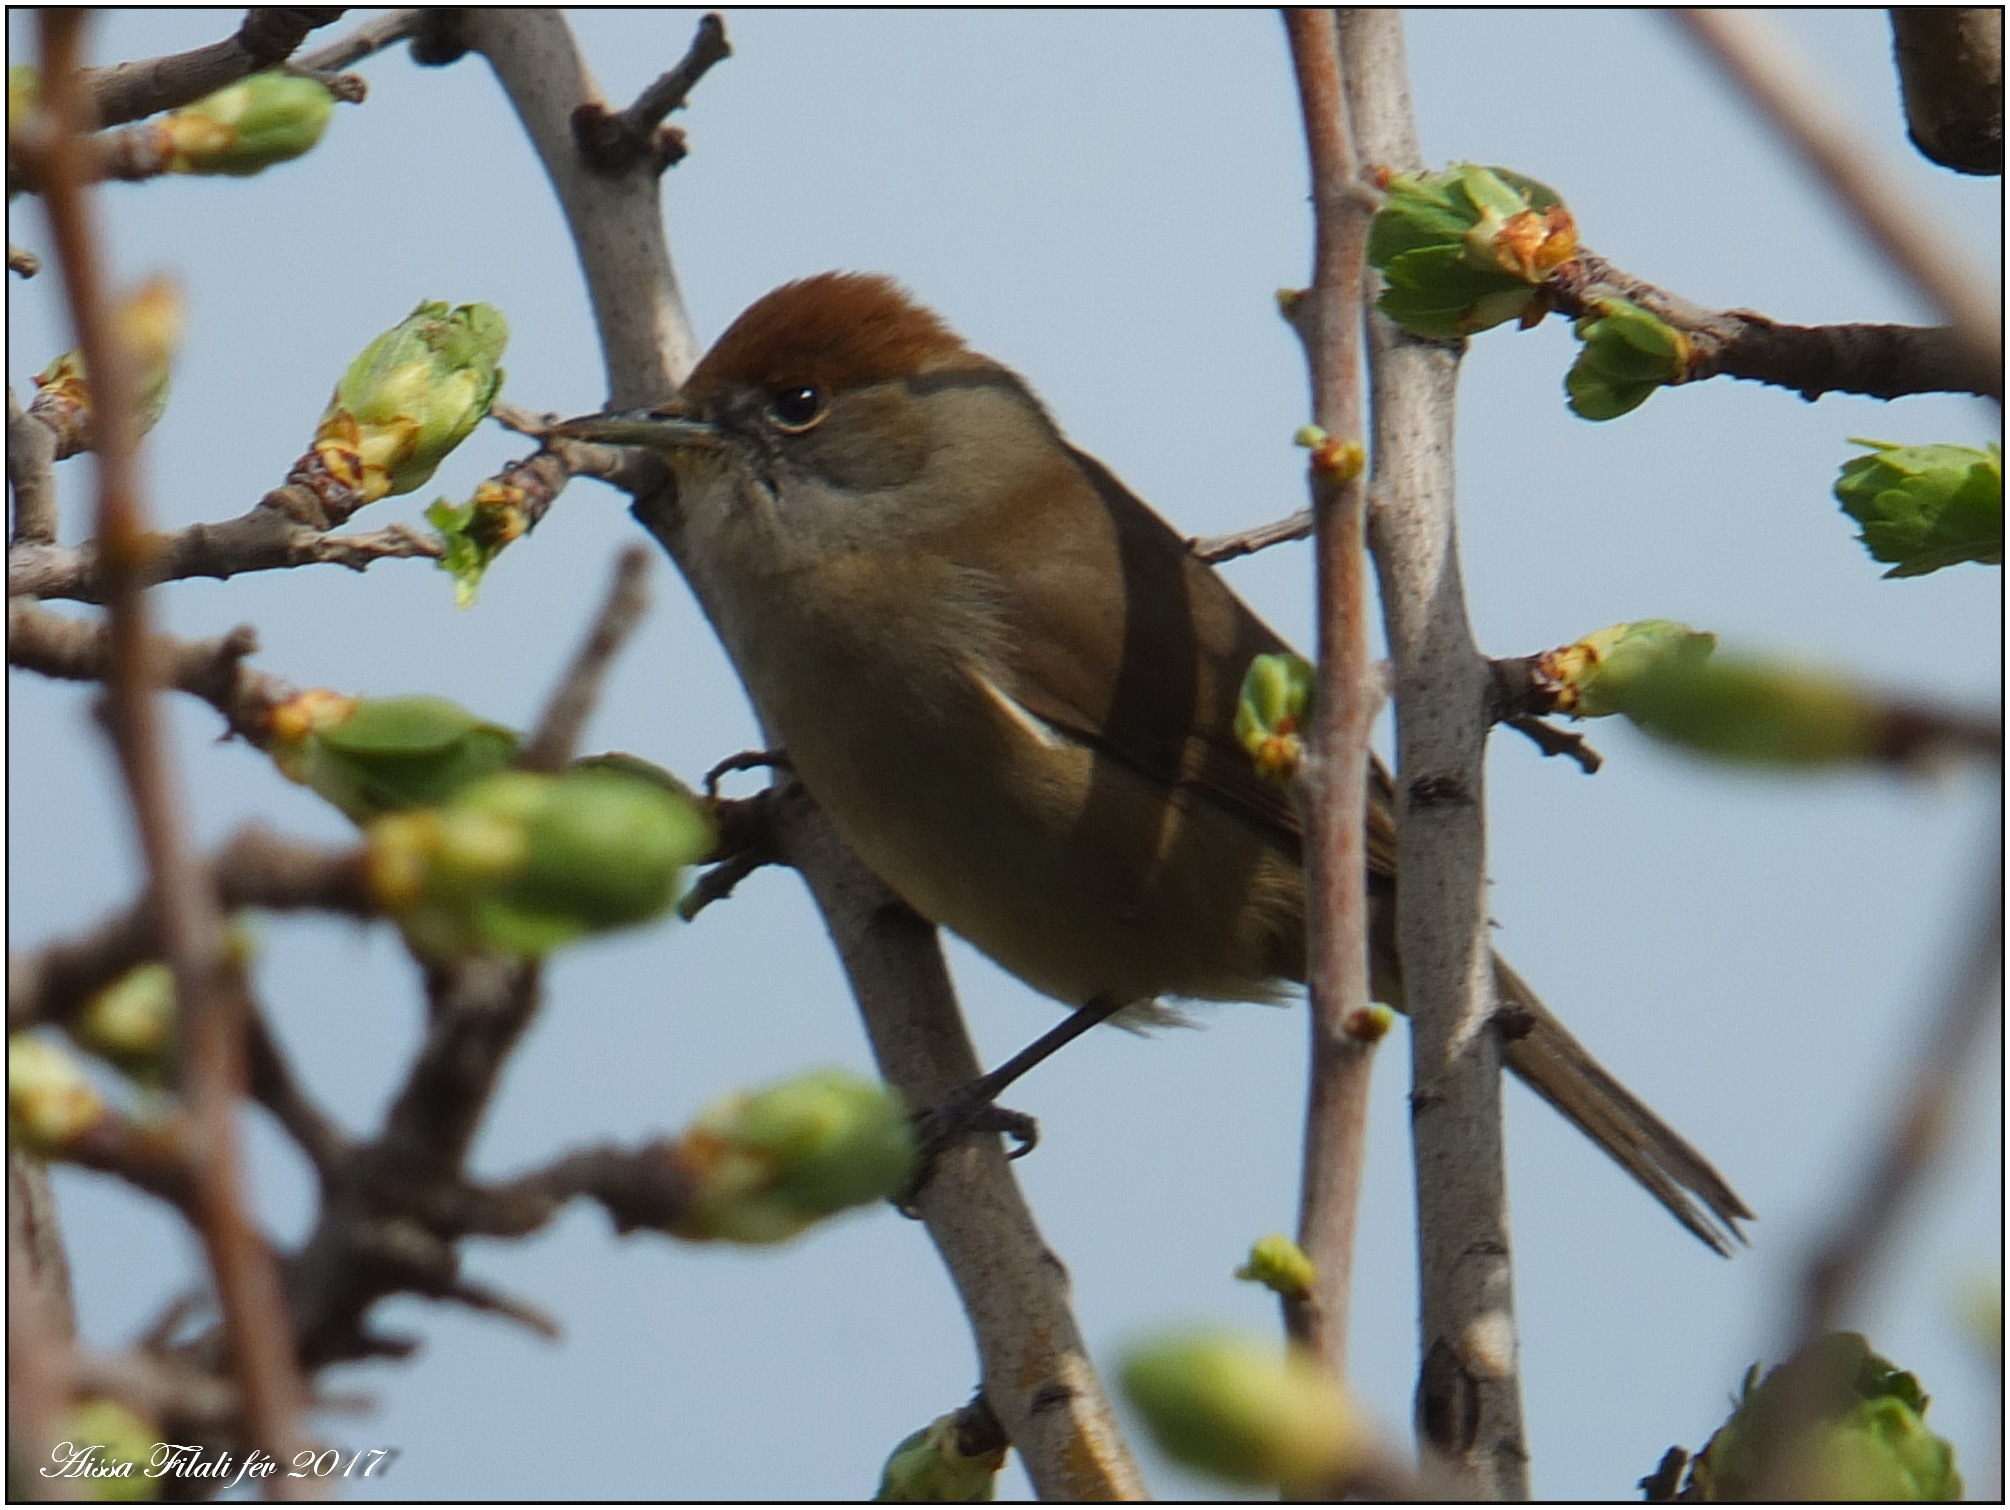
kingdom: Animalia
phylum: Chordata
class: Aves
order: Passeriformes
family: Sylviidae
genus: Sylvia
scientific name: Sylvia atricapilla
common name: Eurasian blackcap
